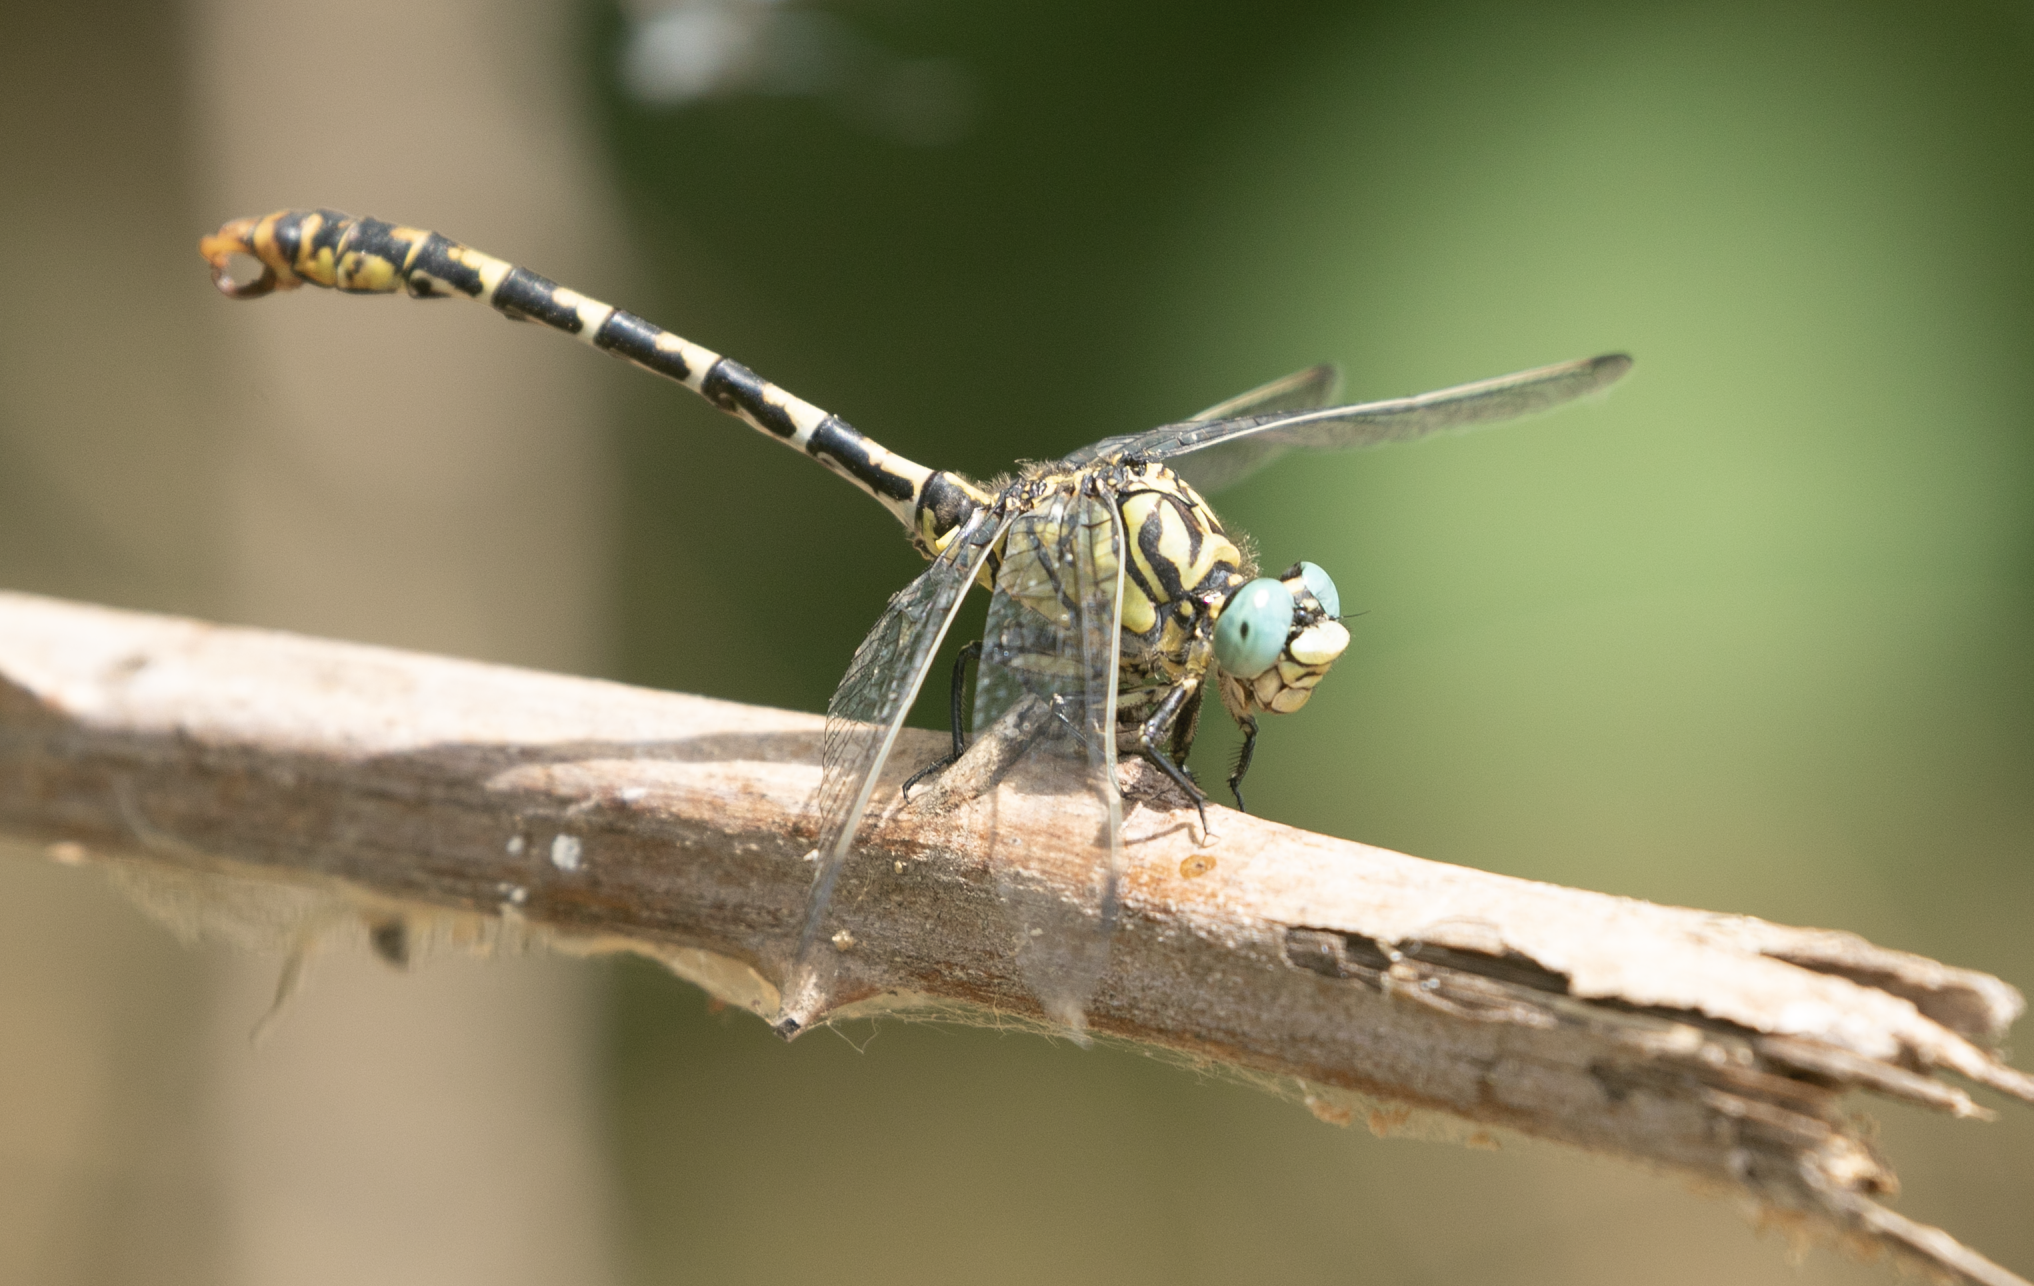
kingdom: Animalia
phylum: Arthropoda
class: Insecta
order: Odonata
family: Gomphidae
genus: Onychogomphus
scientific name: Onychogomphus forcipatus
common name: Small pincertail
